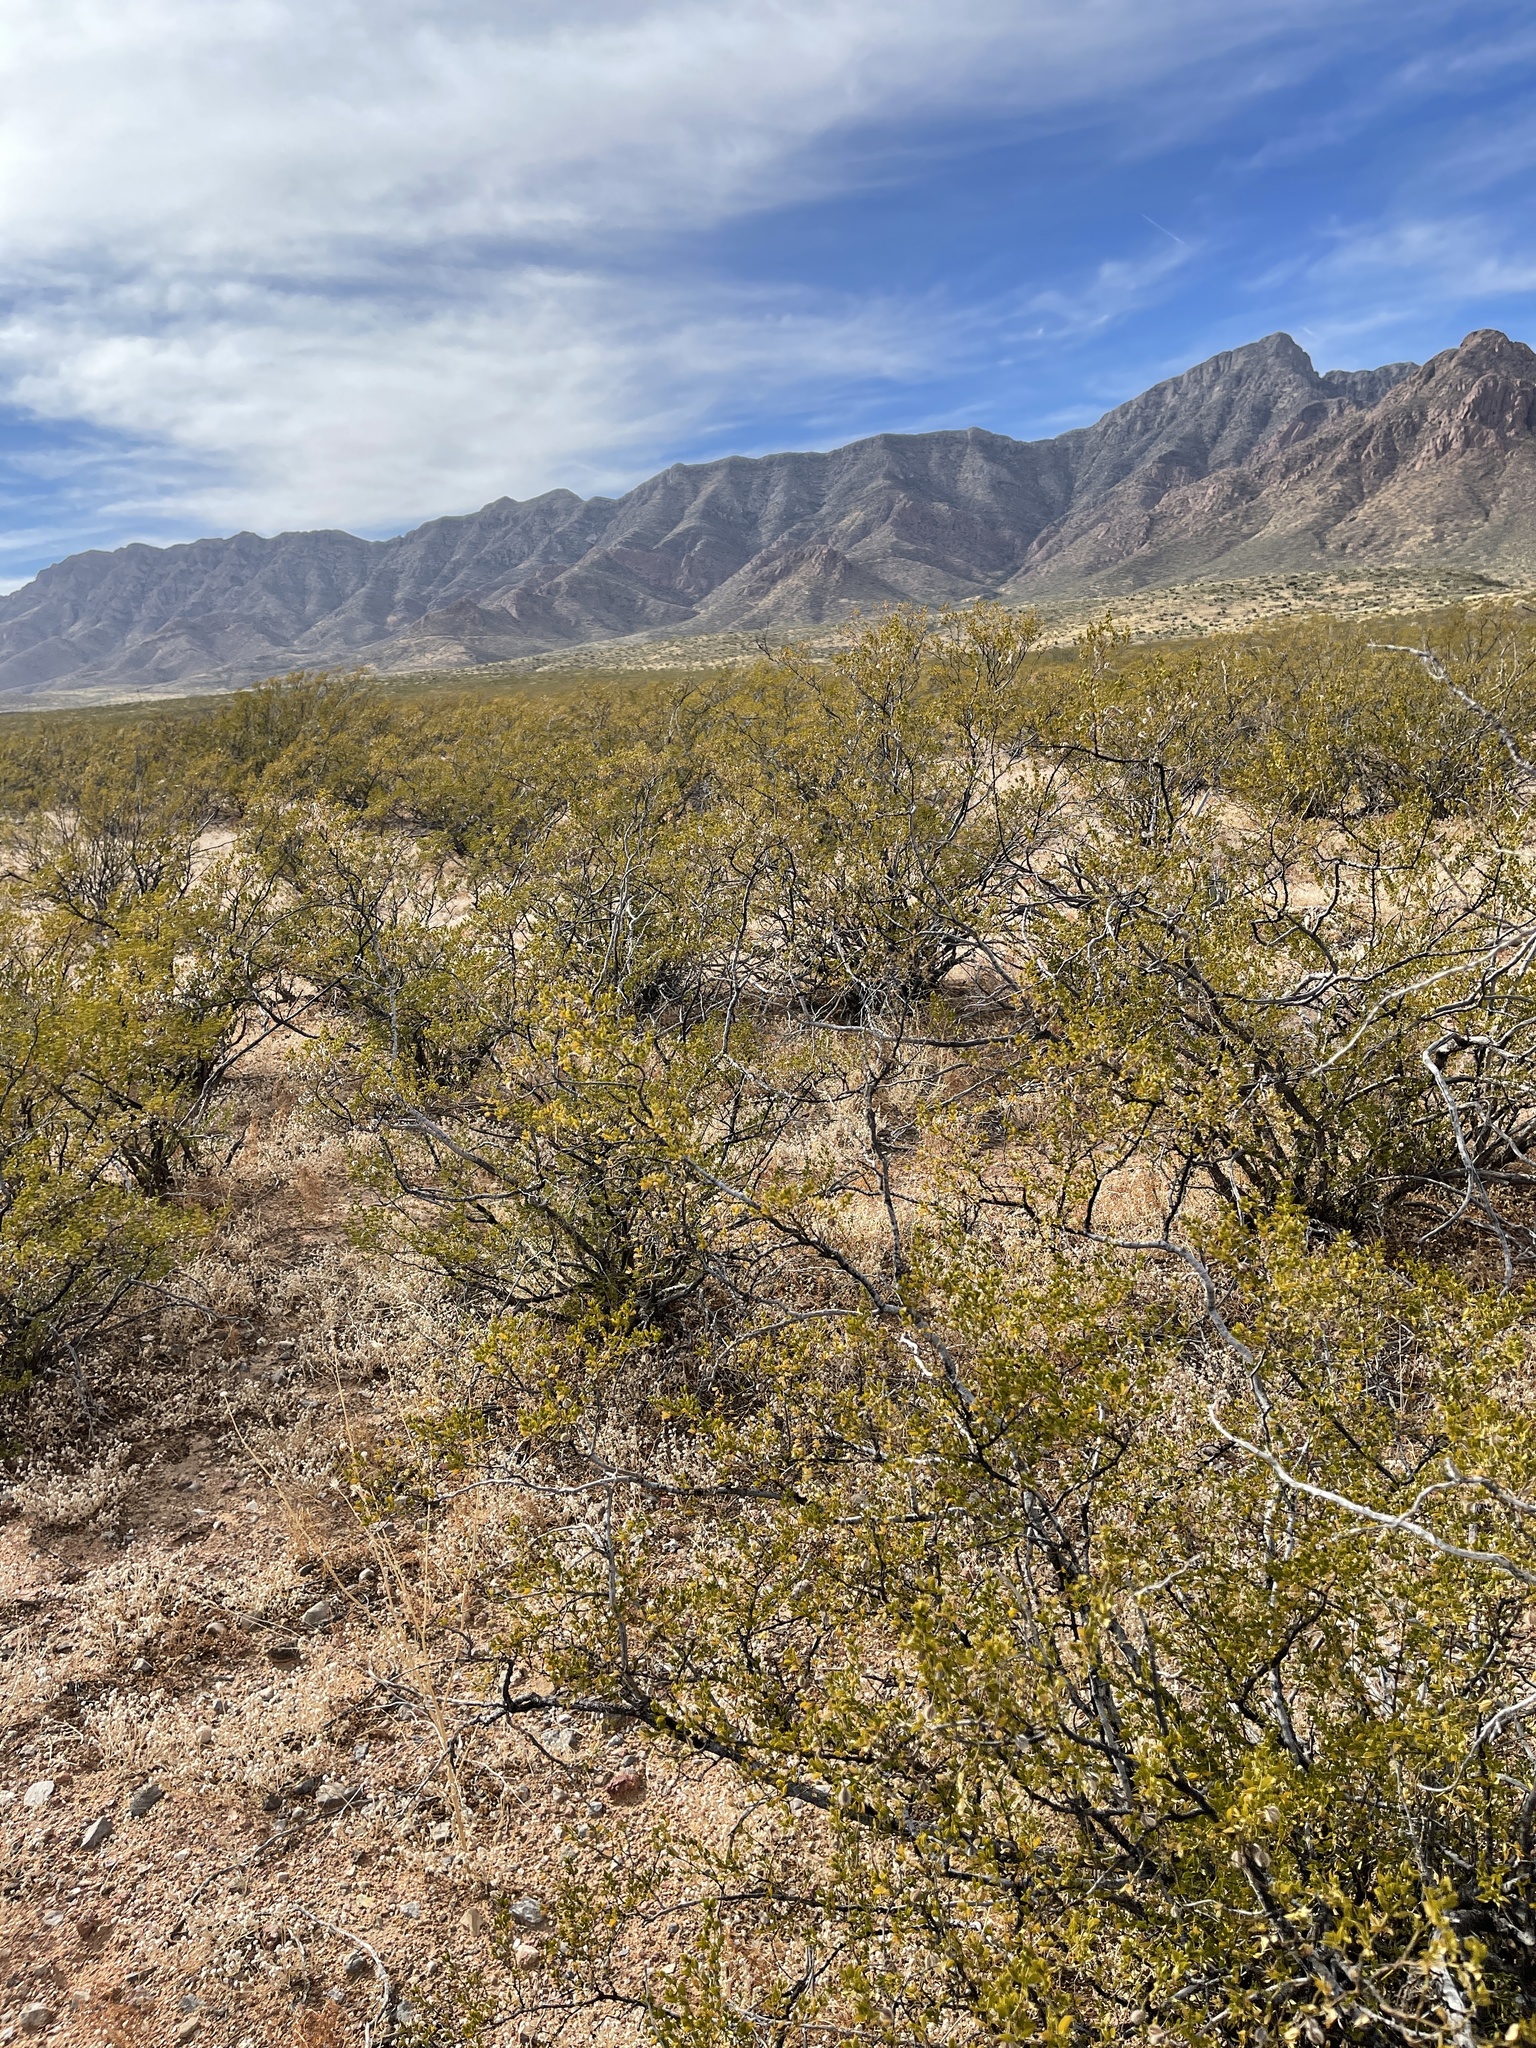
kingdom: Plantae
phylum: Tracheophyta
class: Magnoliopsida
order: Zygophyllales
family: Zygophyllaceae
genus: Larrea
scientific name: Larrea tridentata
